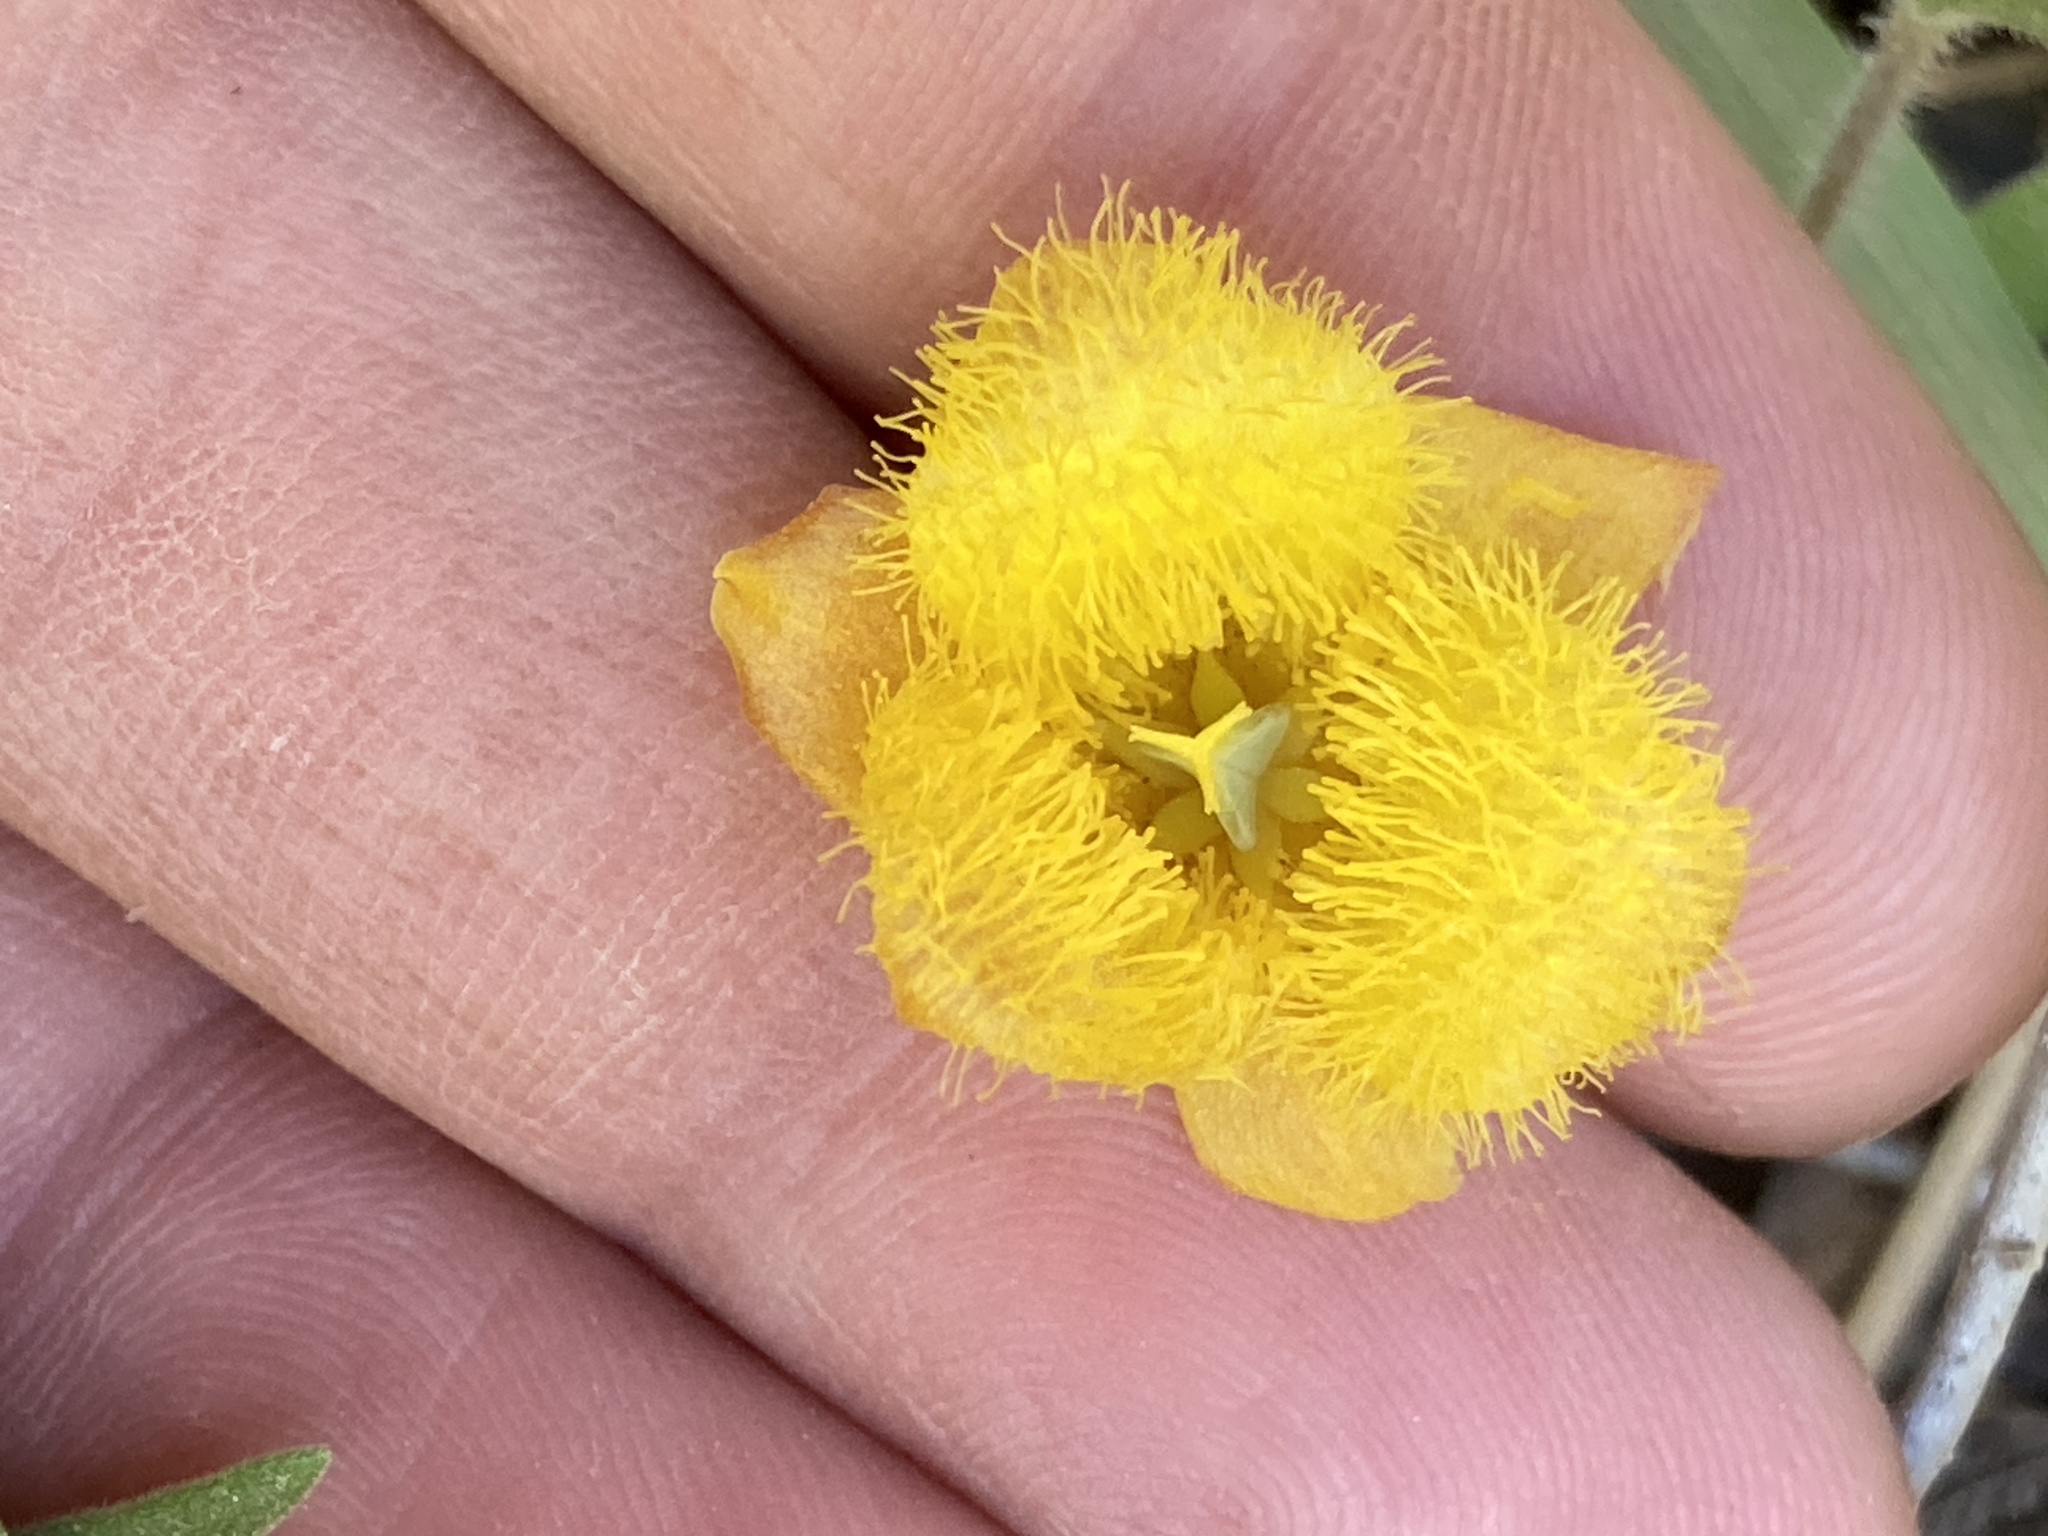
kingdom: Plantae
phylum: Tracheophyta
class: Liliopsida
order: Liliales
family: Liliaceae
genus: Calochortus
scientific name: Calochortus monophyllus
